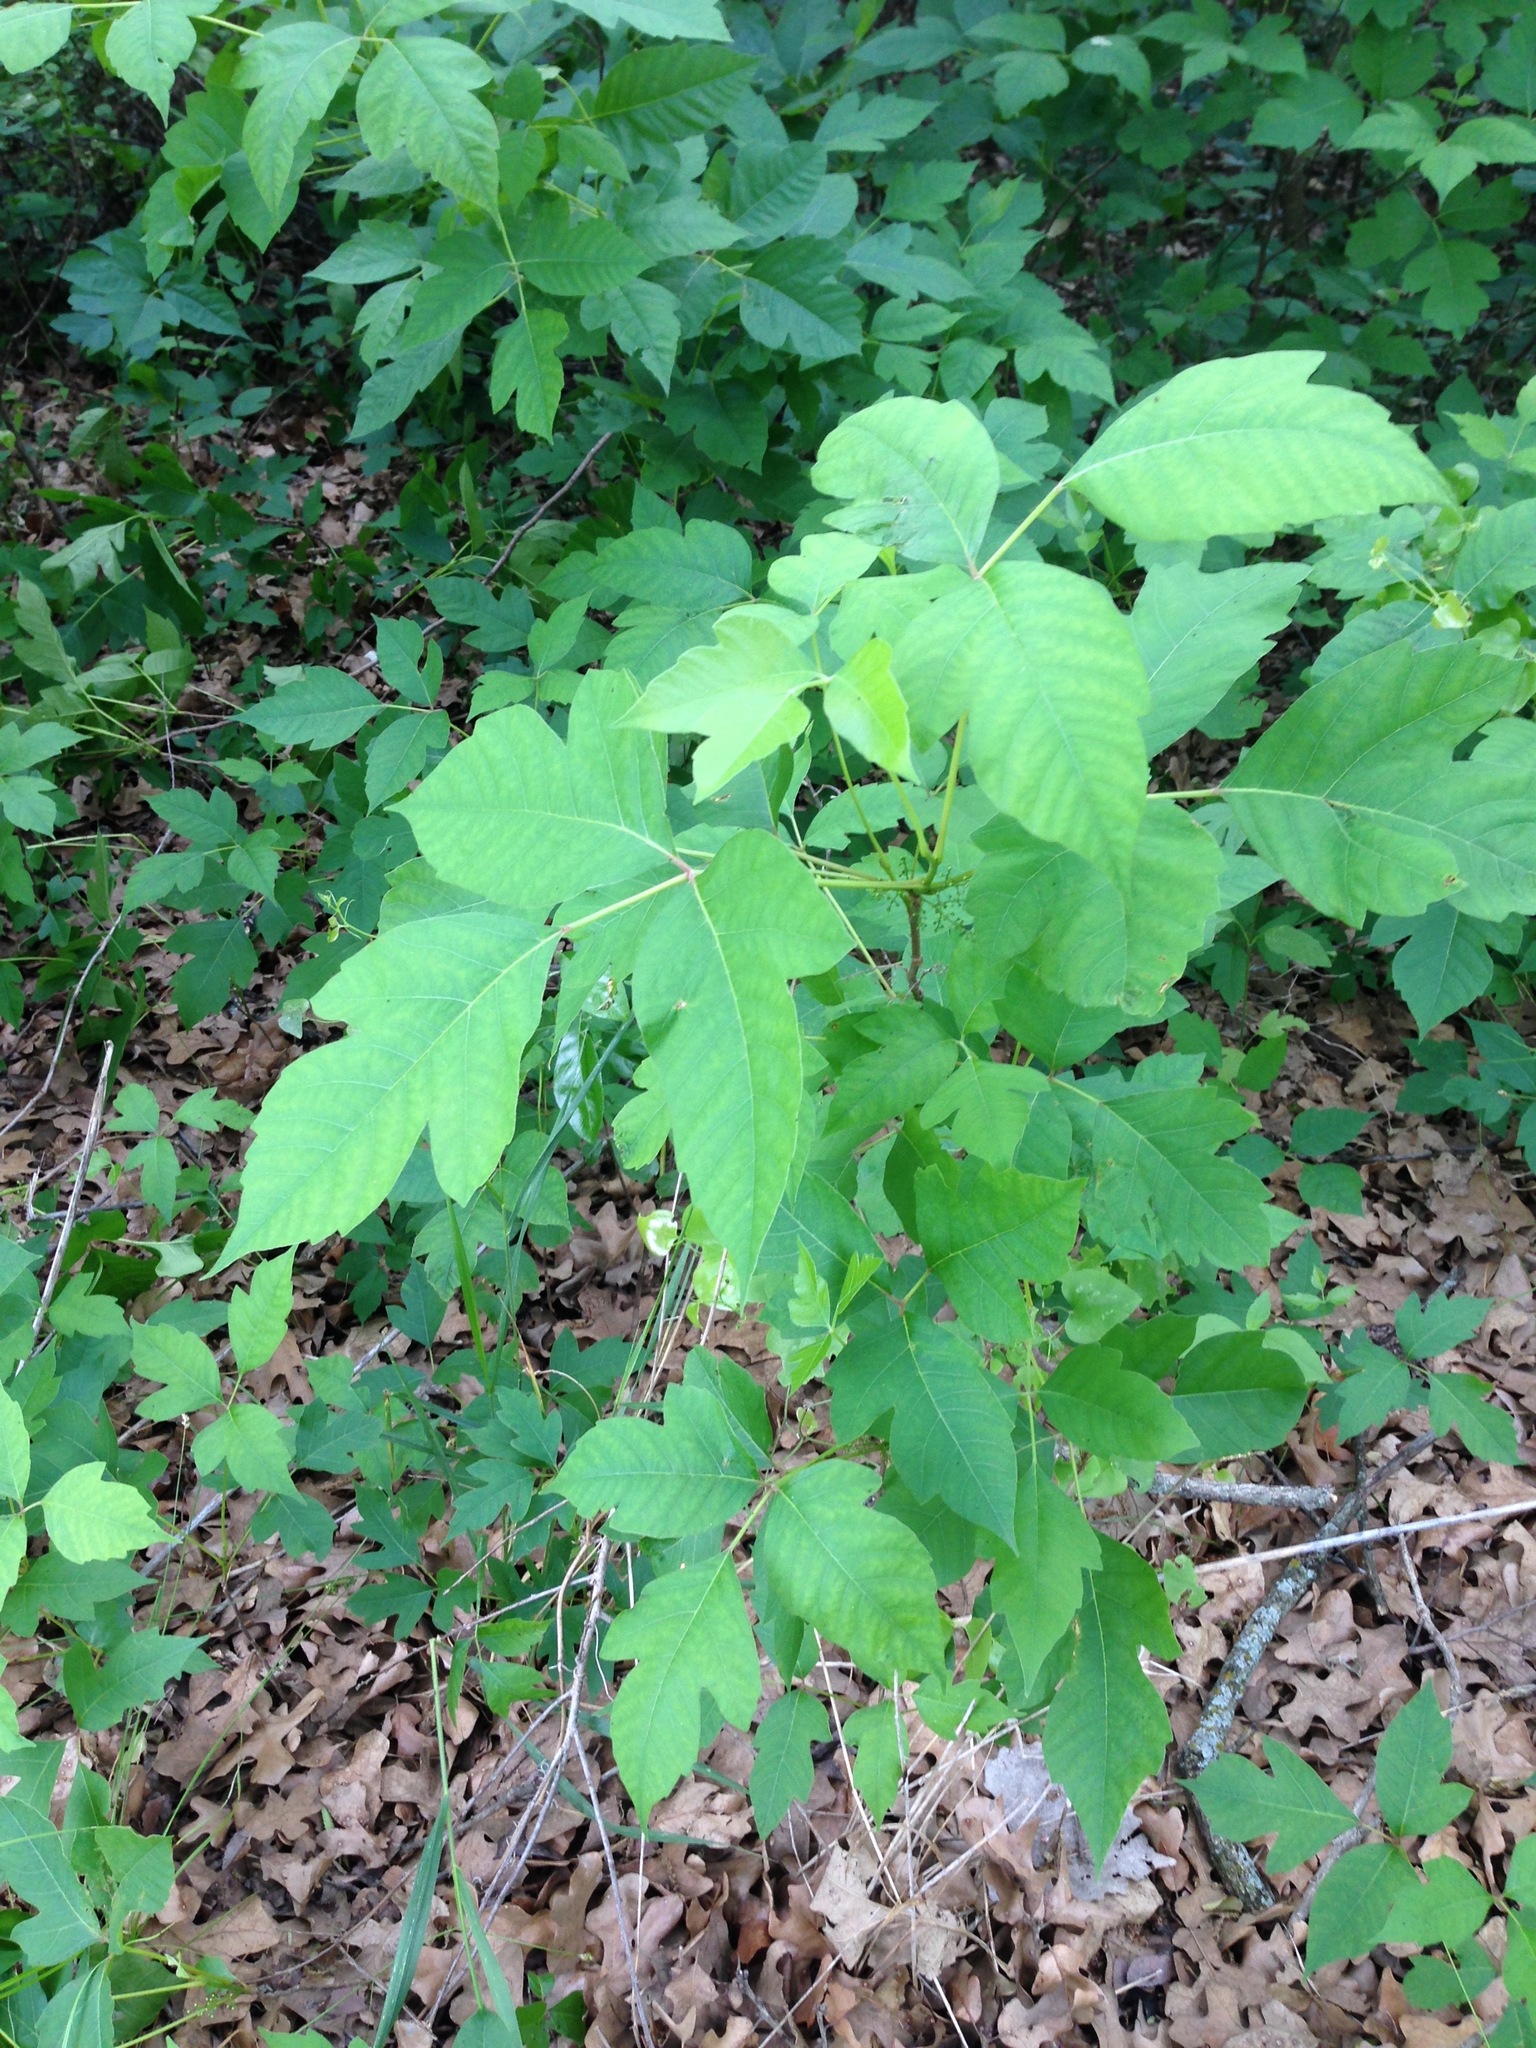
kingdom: Plantae
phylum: Tracheophyta
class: Magnoliopsida
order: Sapindales
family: Anacardiaceae
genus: Toxicodendron
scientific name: Toxicodendron radicans
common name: Poison ivy
